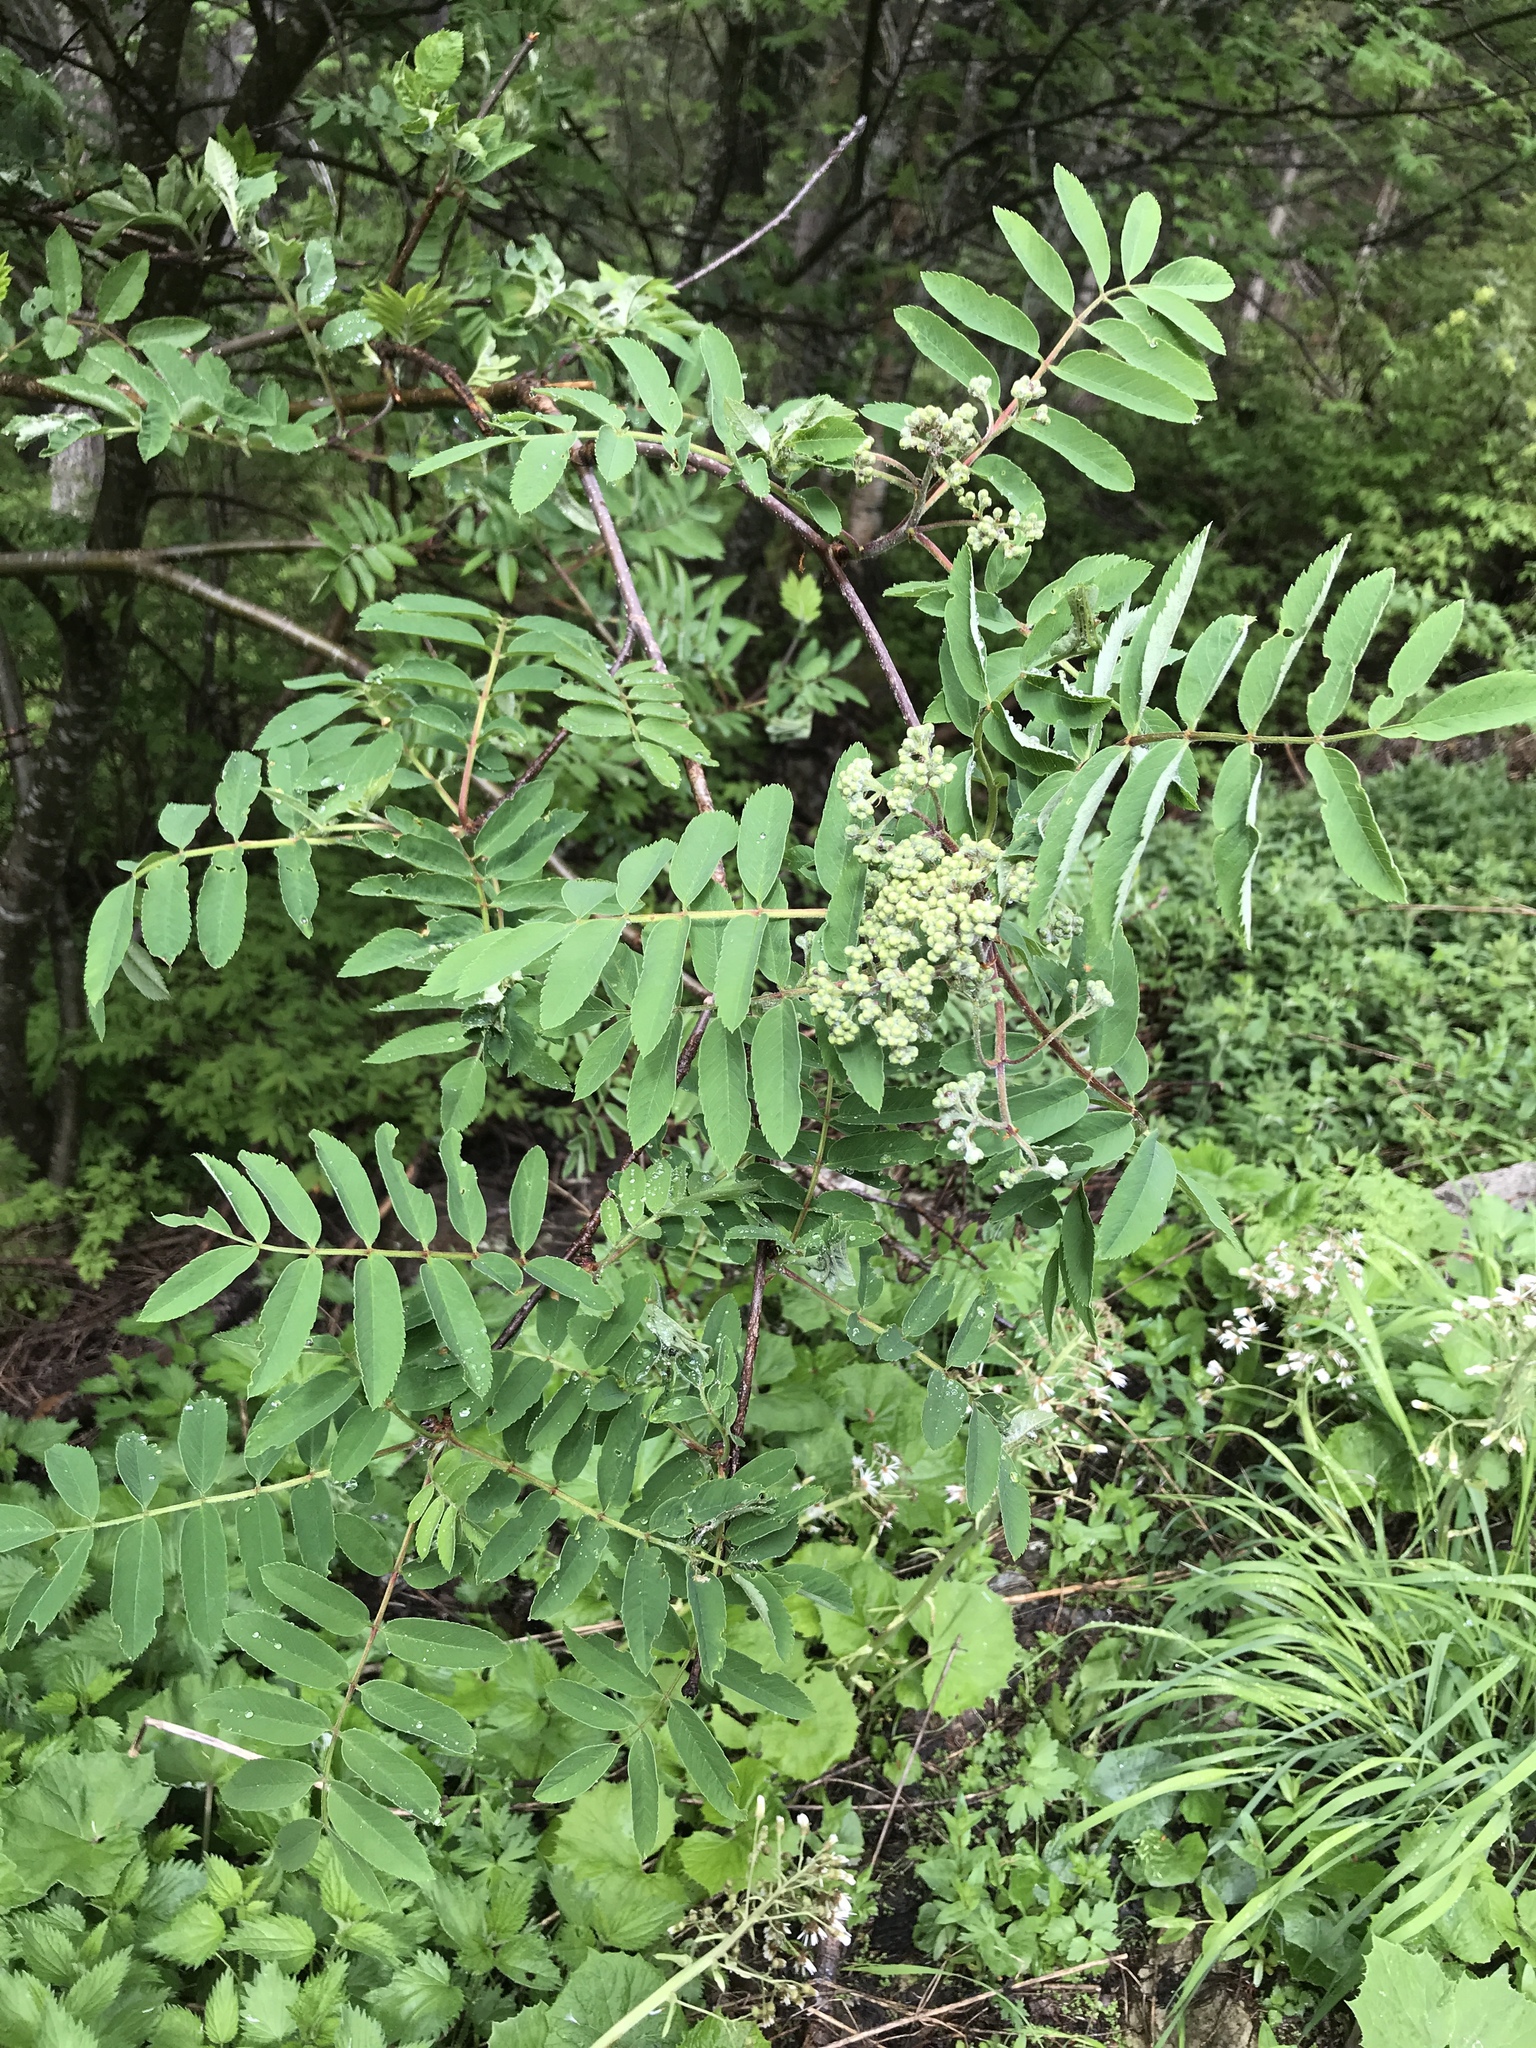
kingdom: Plantae
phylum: Tracheophyta
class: Magnoliopsida
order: Rosales
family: Rosaceae
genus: Sorbus
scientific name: Sorbus aucuparia
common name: Rowan
